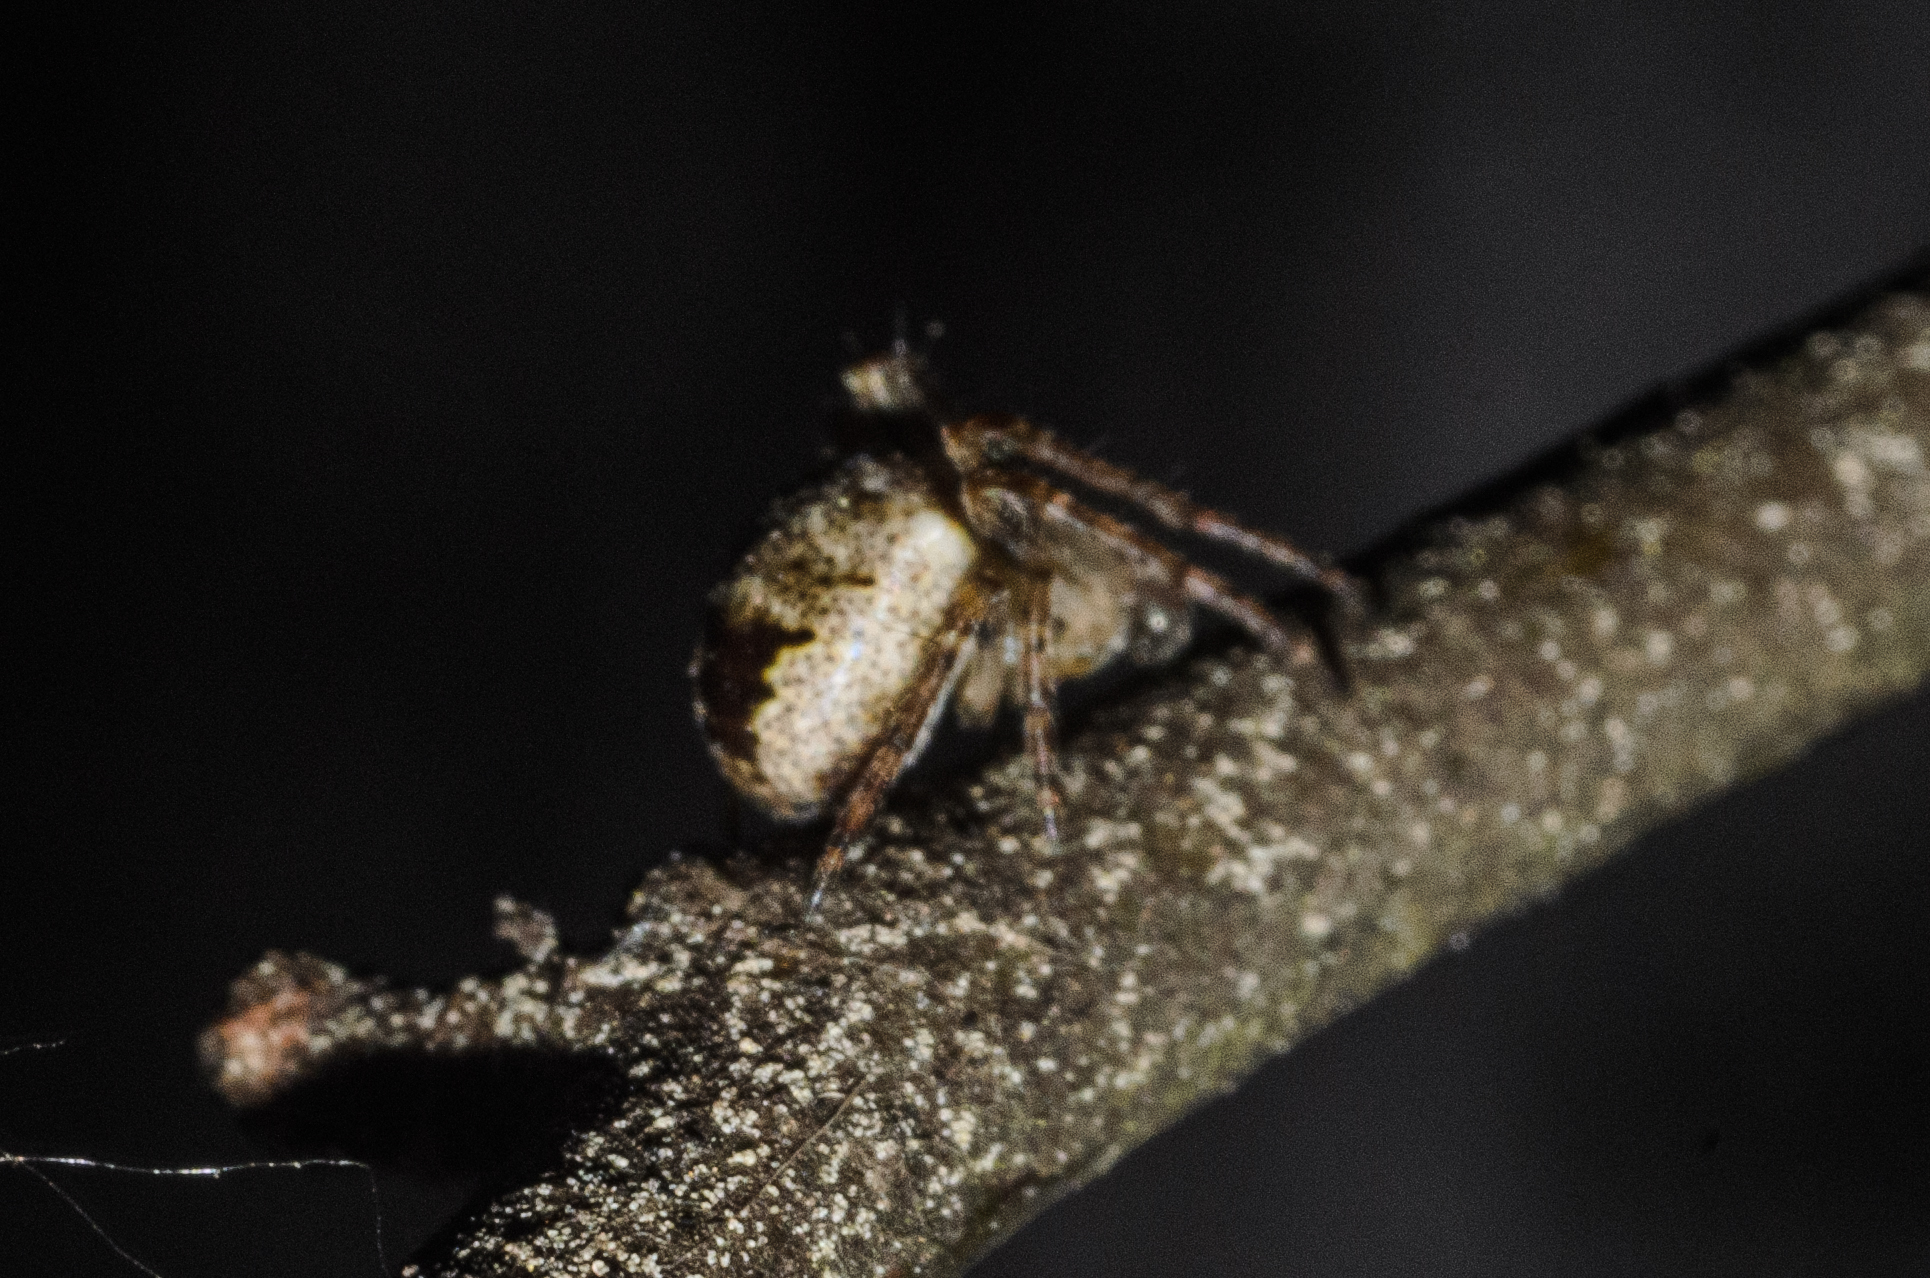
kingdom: Animalia
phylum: Arthropoda
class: Arachnida
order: Araneae
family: Araneidae
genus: Zilla
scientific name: Zilla diodia
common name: Zilla diodia
